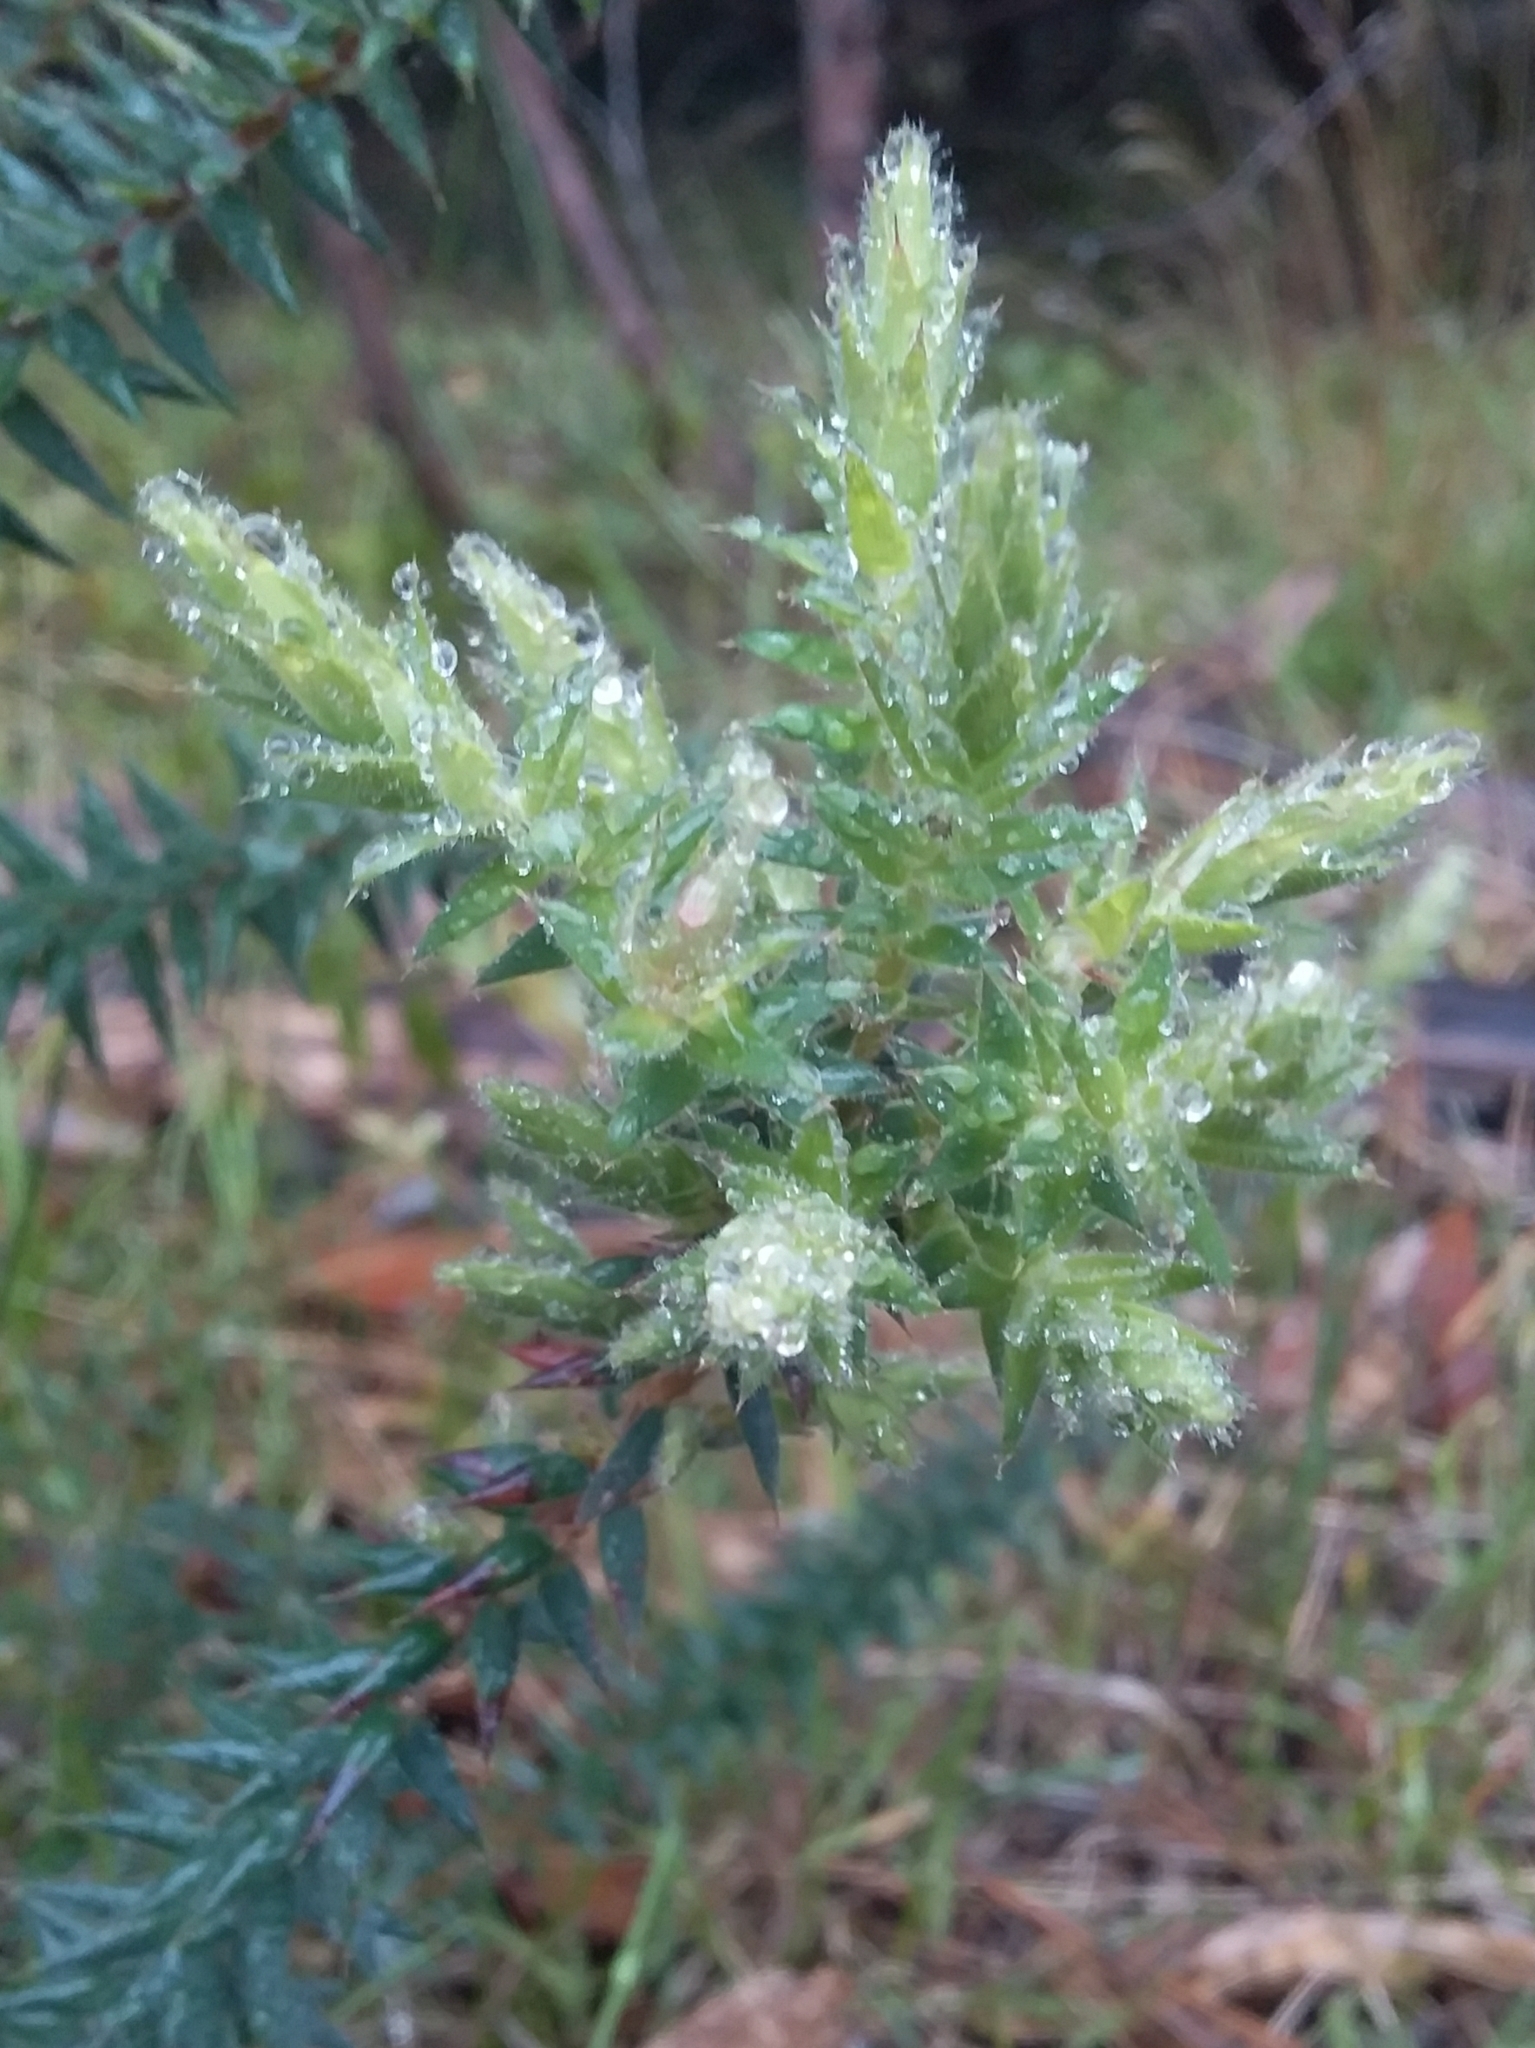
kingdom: Plantae
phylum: Tracheophyta
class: Magnoliopsida
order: Ericales
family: Ericaceae
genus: Acrotriche
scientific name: Acrotriche fasciculiflora
